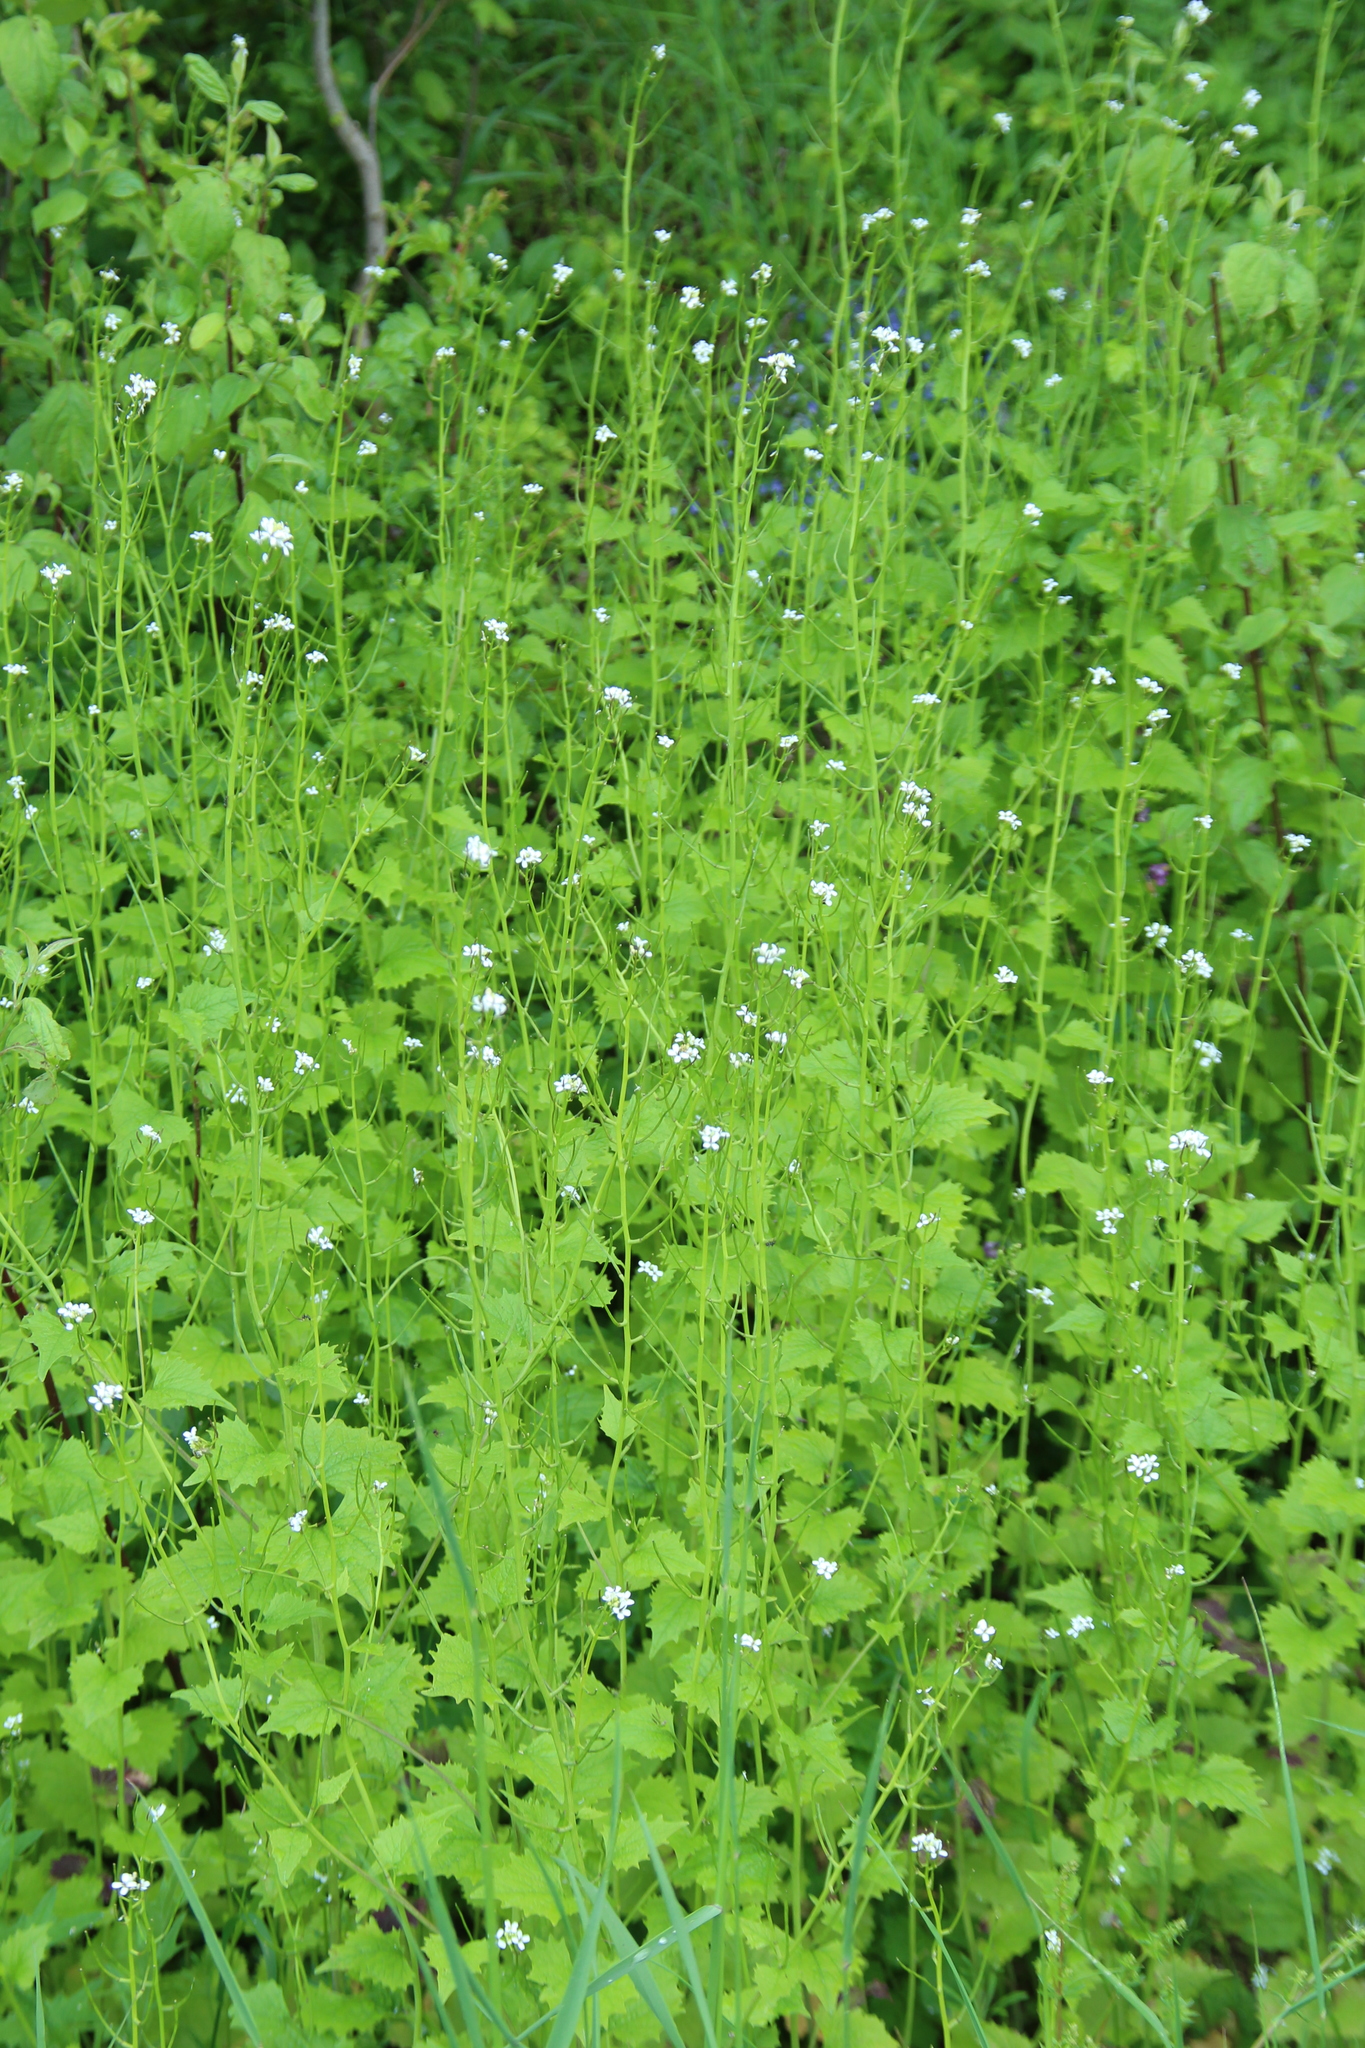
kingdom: Plantae
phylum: Tracheophyta
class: Magnoliopsida
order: Brassicales
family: Brassicaceae
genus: Alliaria
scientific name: Alliaria petiolata
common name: Garlic mustard
